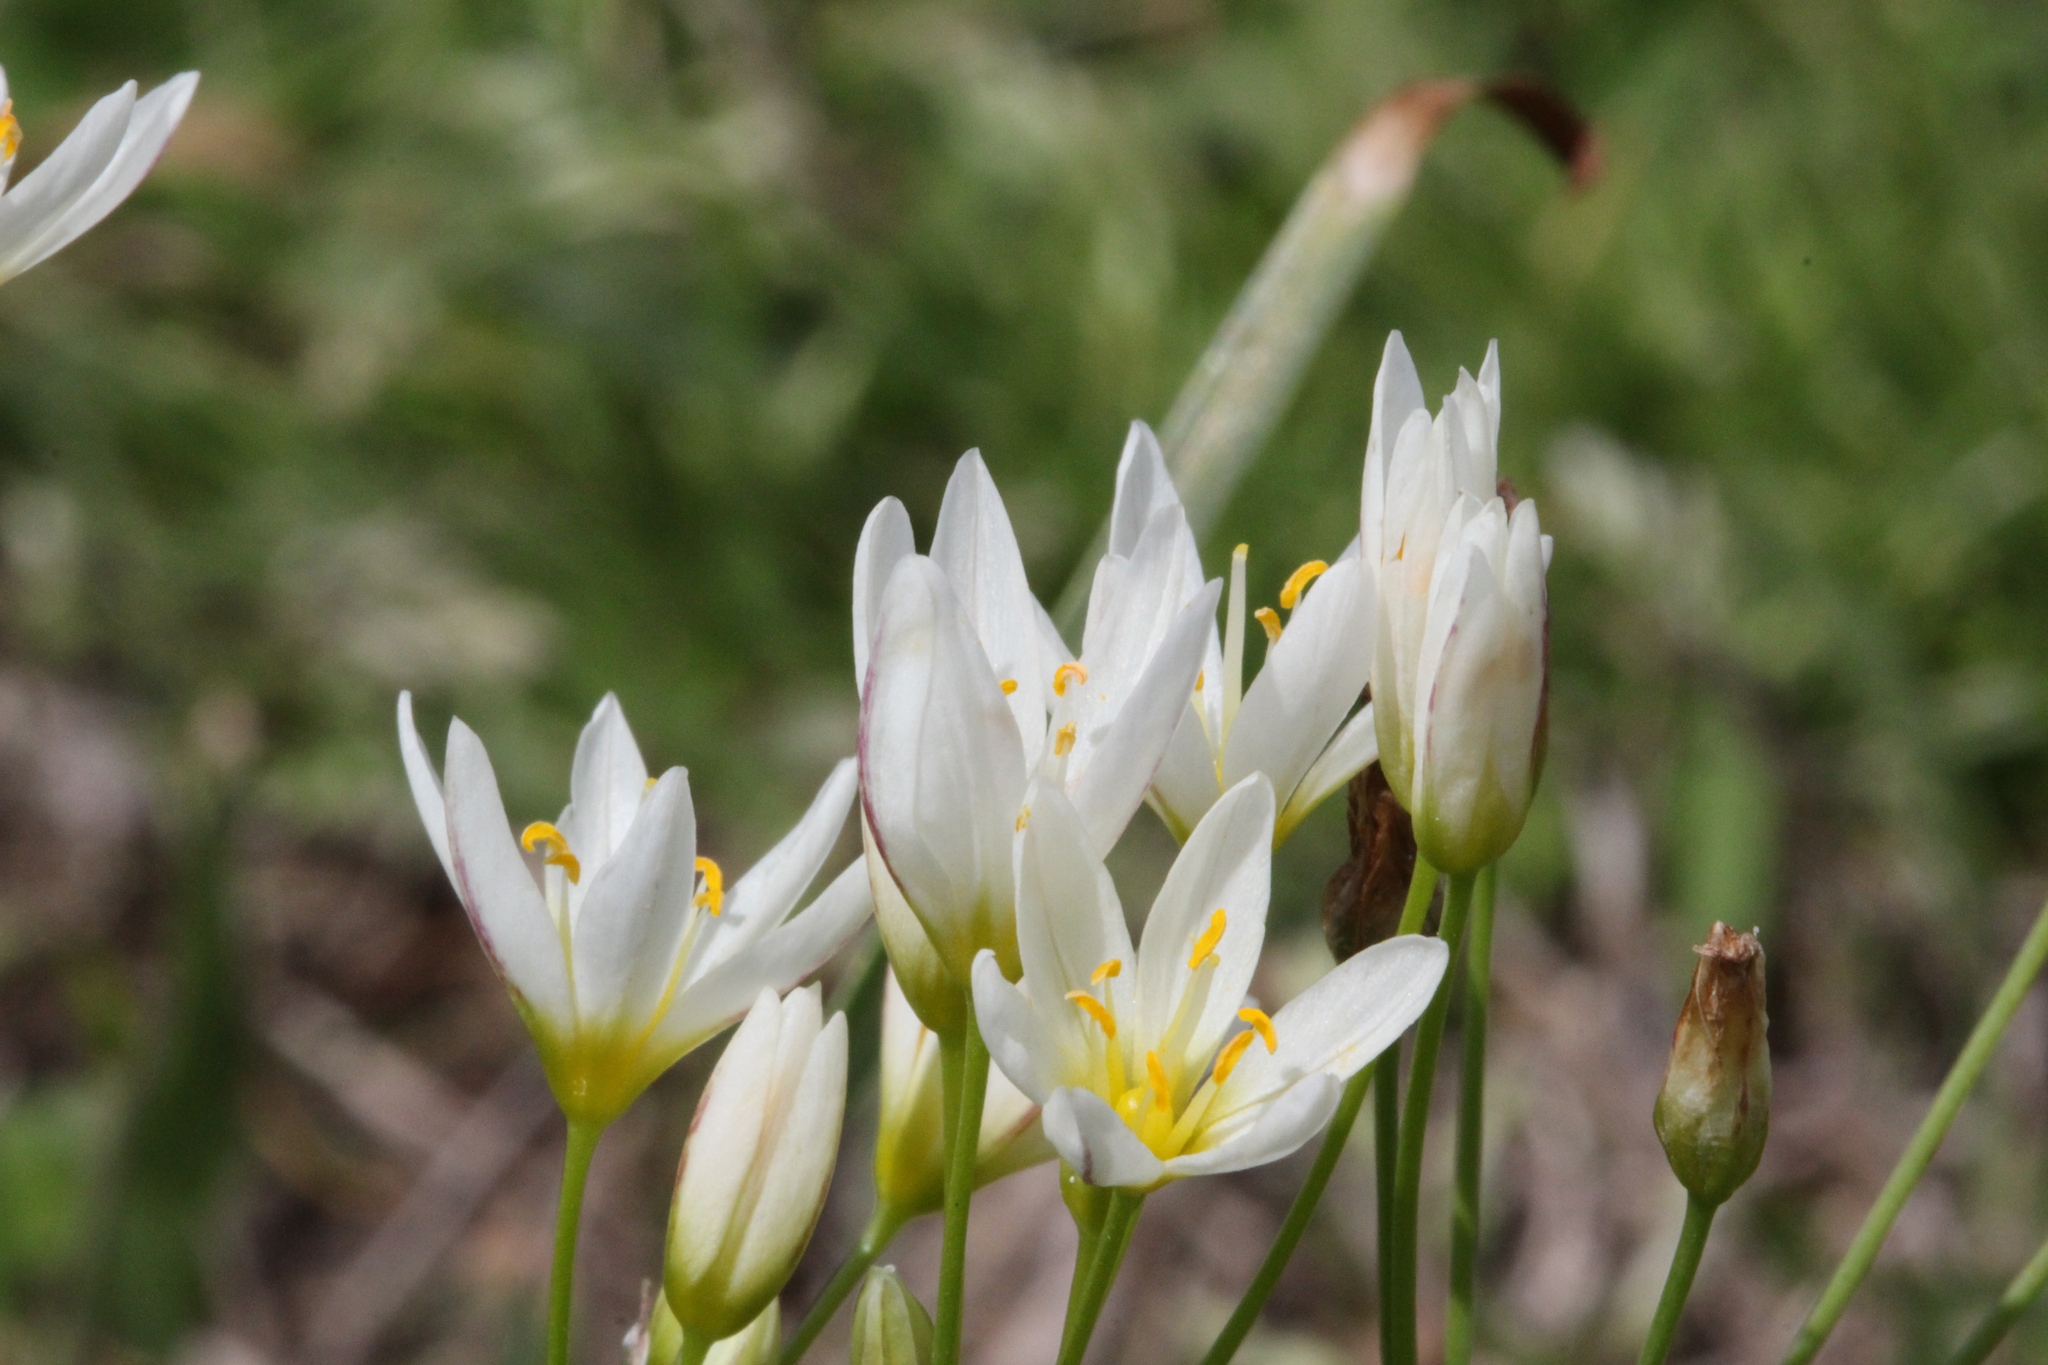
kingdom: Plantae
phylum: Tracheophyta
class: Liliopsida
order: Asparagales
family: Amaryllidaceae
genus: Nothoscordum
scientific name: Nothoscordum bivalve
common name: Crow-poison
